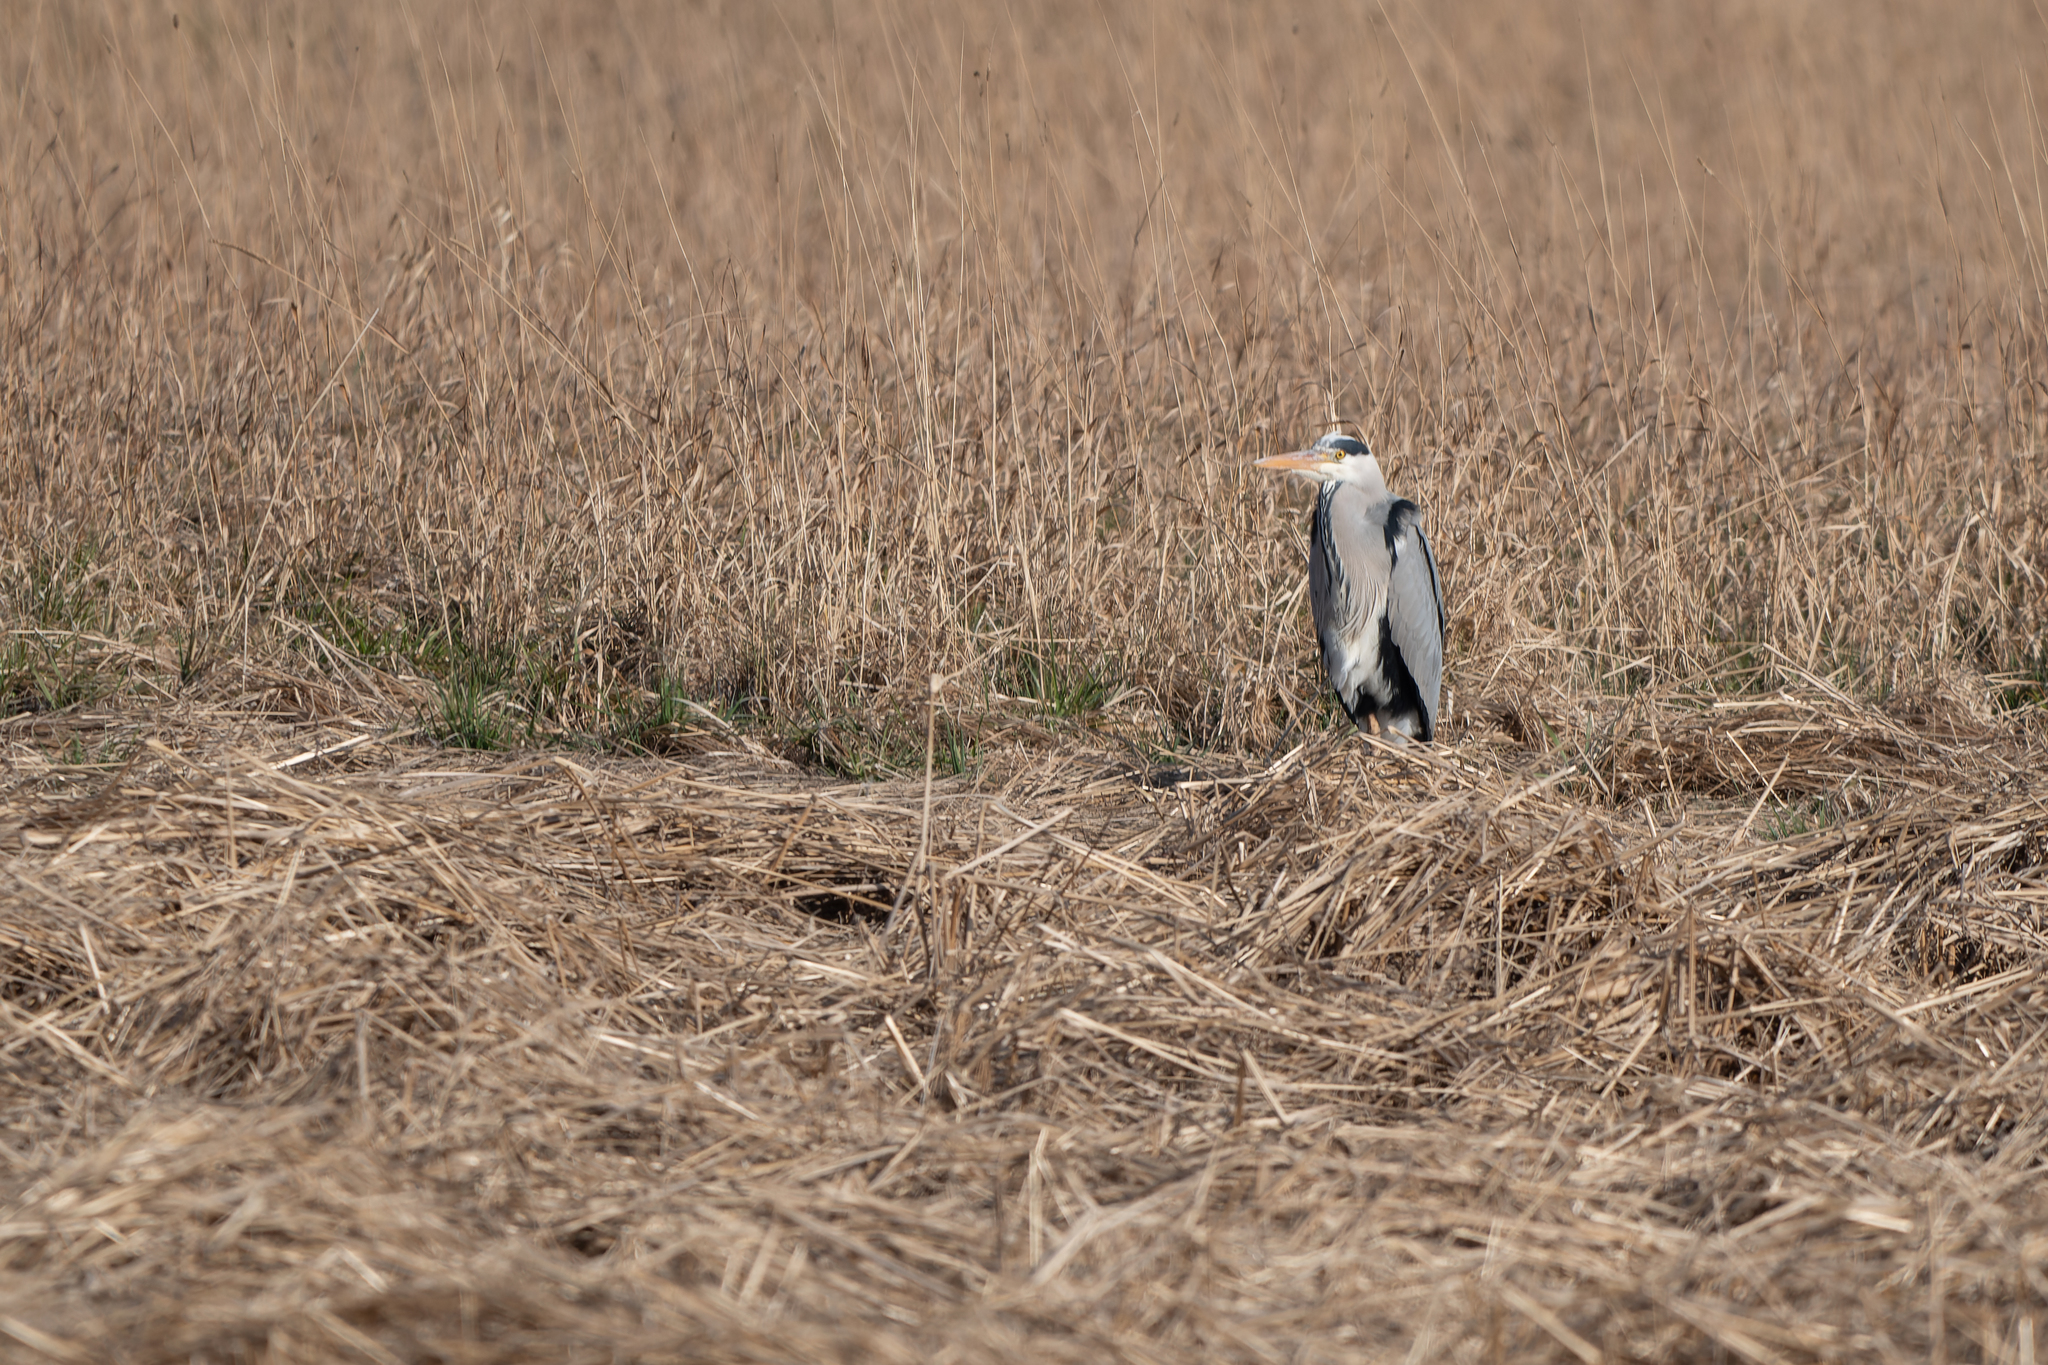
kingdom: Animalia
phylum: Chordata
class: Aves
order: Pelecaniformes
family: Ardeidae
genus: Ardea
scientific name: Ardea cinerea
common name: Grey heron
